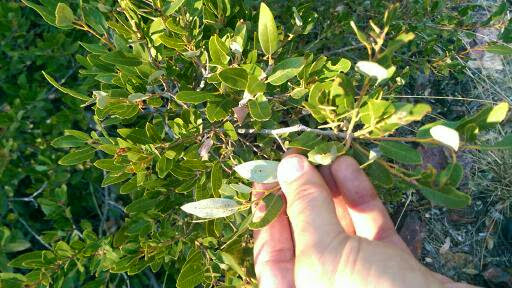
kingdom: Plantae
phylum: Tracheophyta
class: Magnoliopsida
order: Fagales
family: Fagaceae
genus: Quercus
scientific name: Quercus vacciniifolia
